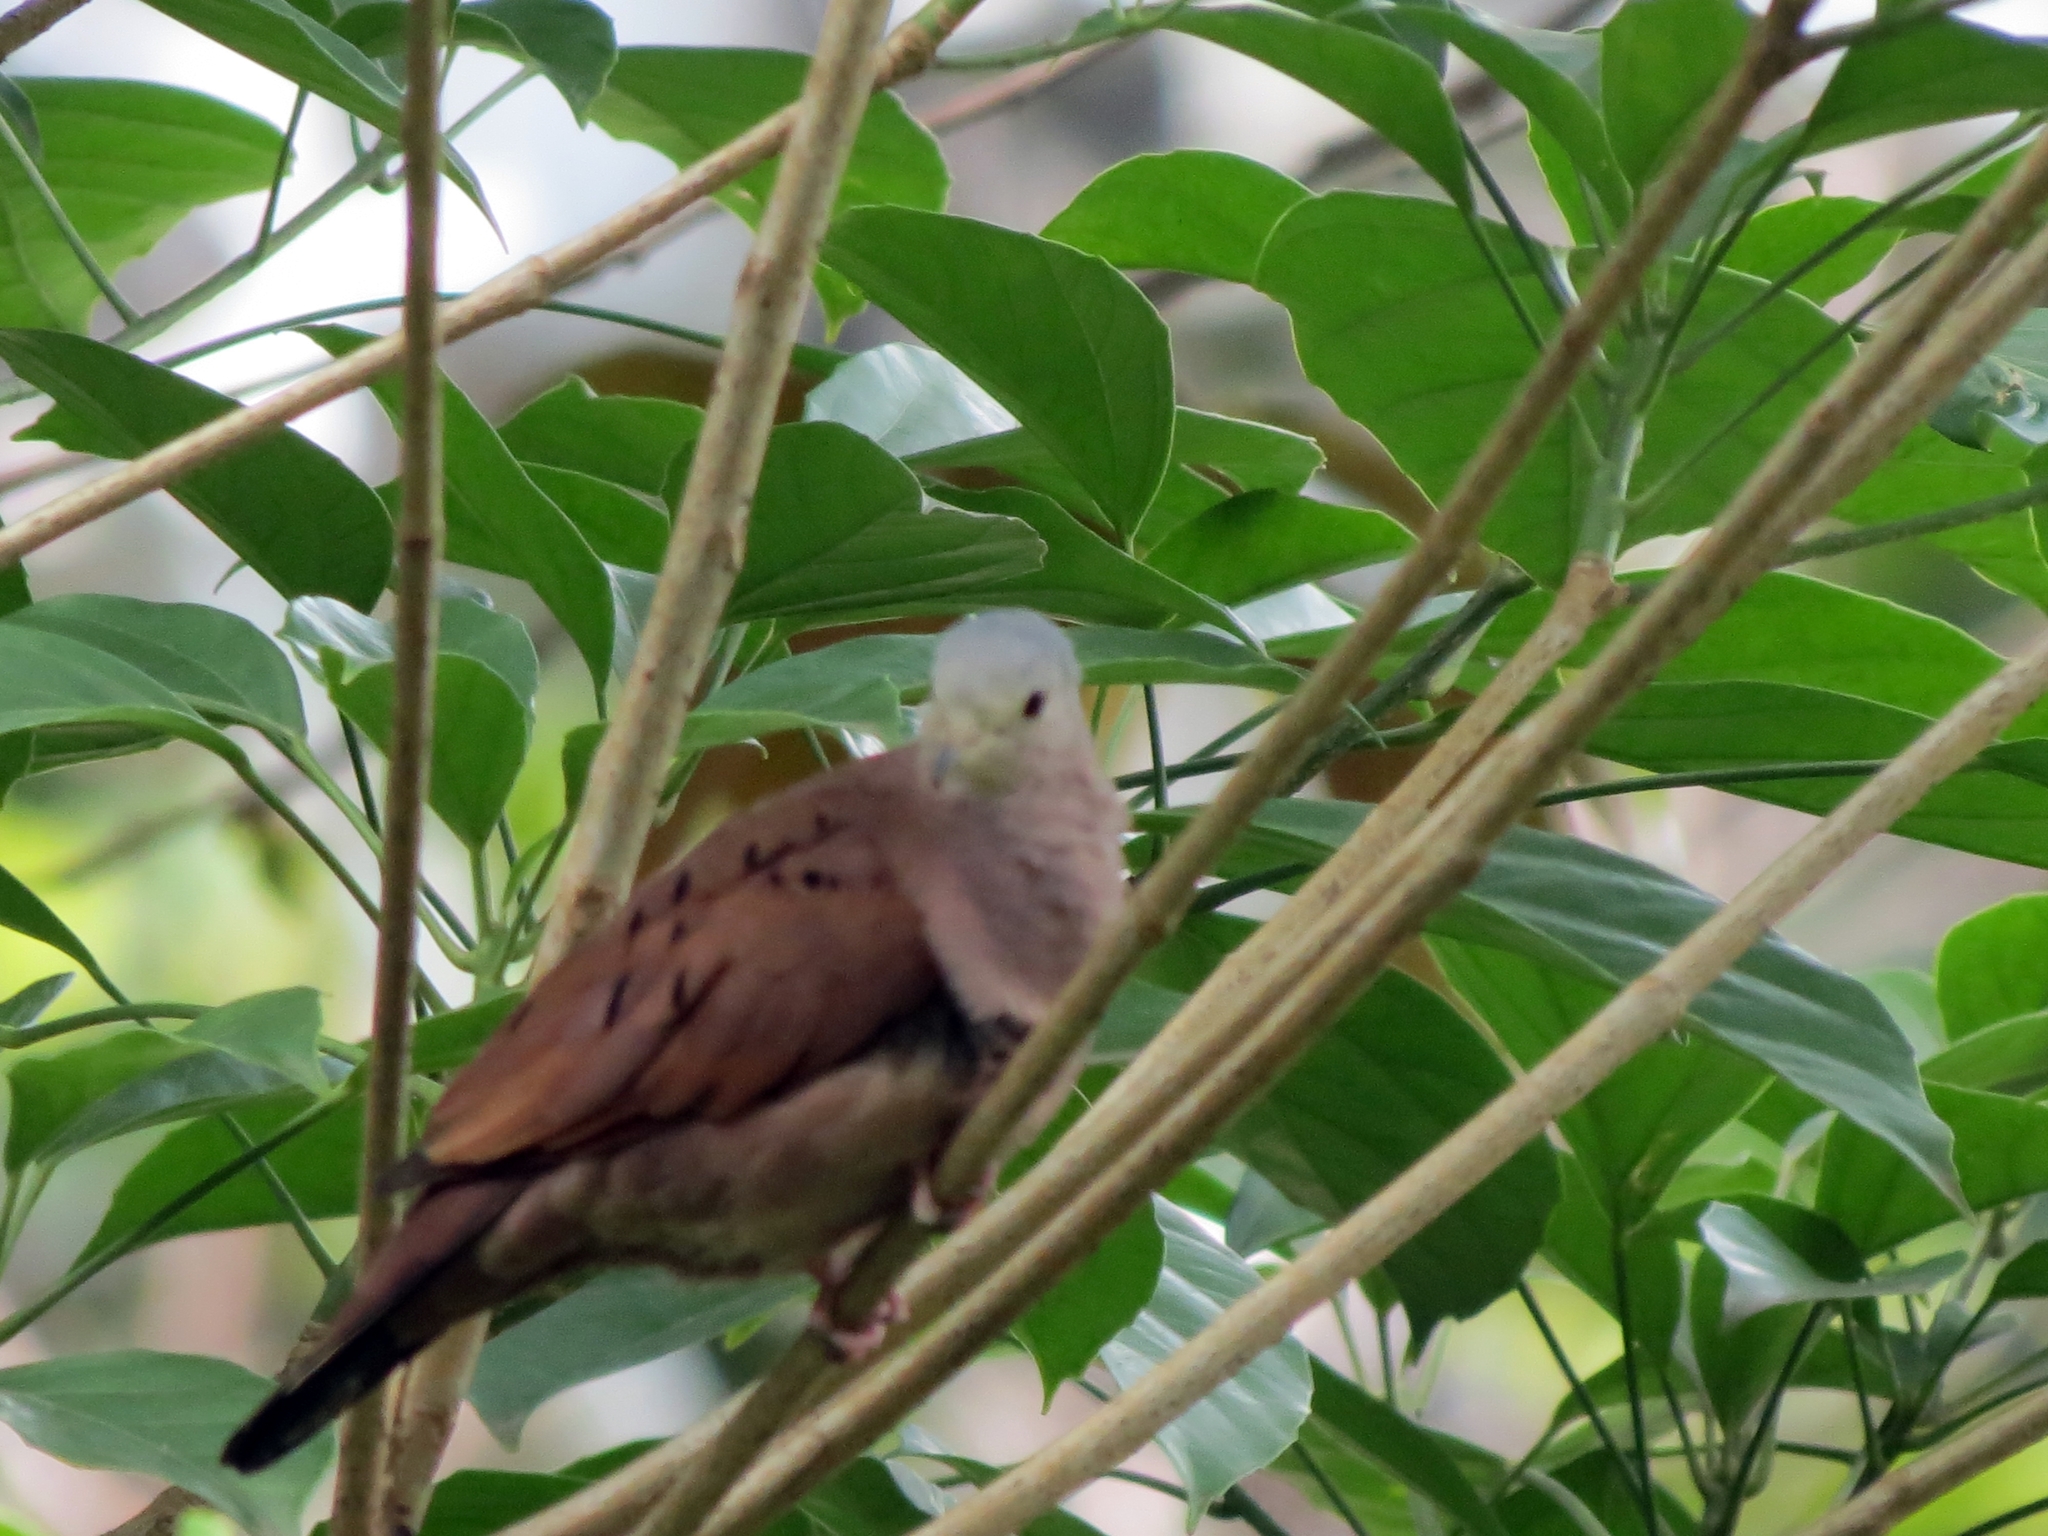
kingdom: Animalia
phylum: Chordata
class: Aves
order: Columbiformes
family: Columbidae
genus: Columbina
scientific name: Columbina talpacoti
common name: Ruddy ground dove
